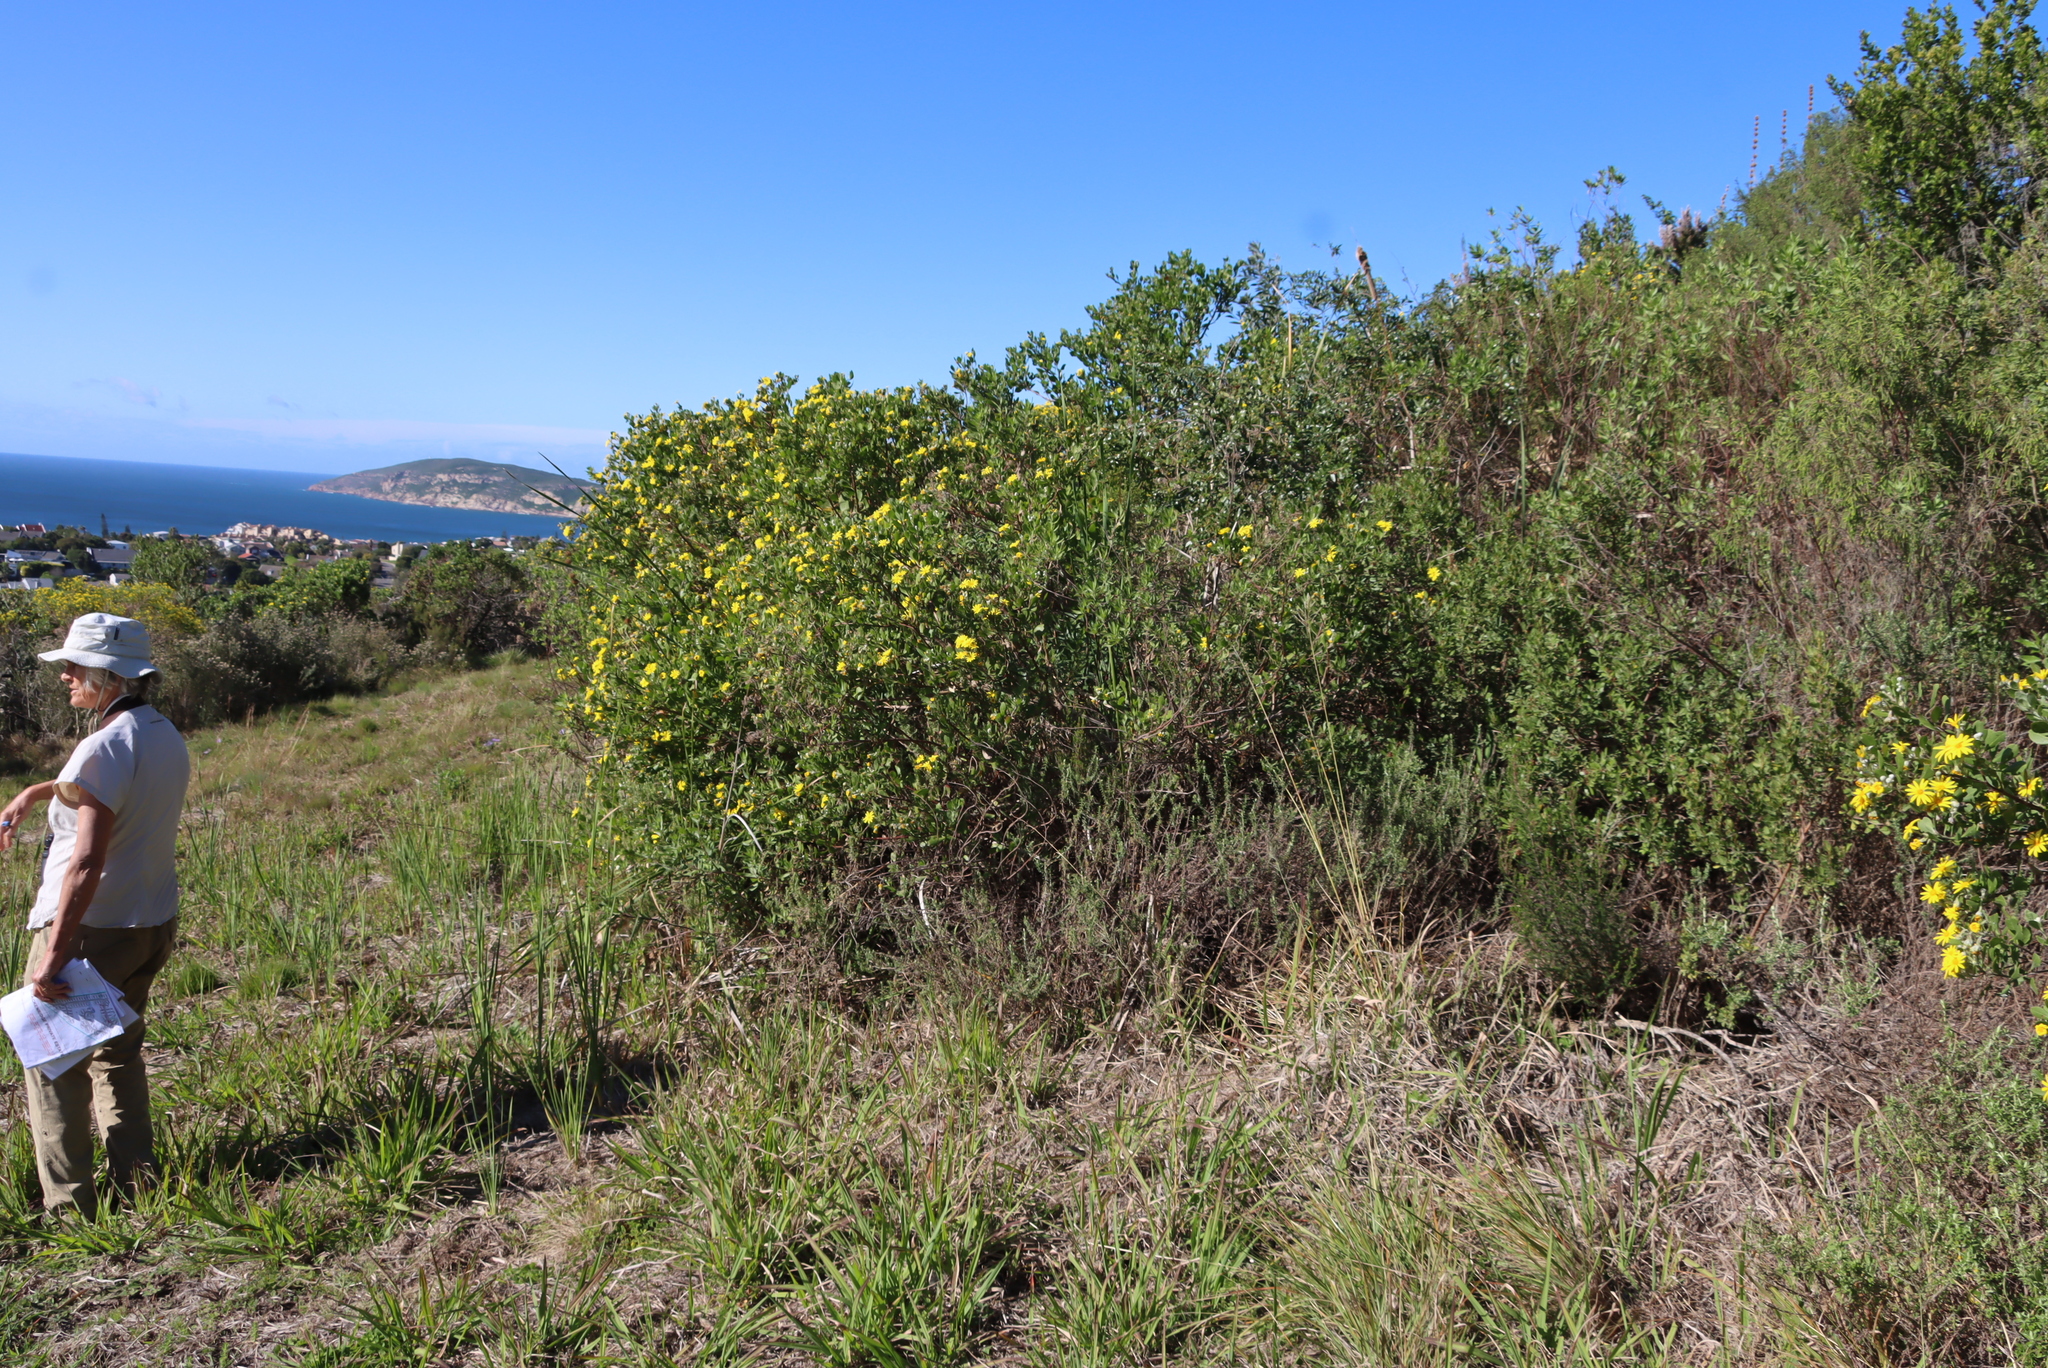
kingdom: Plantae
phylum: Tracheophyta
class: Magnoliopsida
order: Asterales
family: Asteraceae
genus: Osteospermum
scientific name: Osteospermum moniliferum
